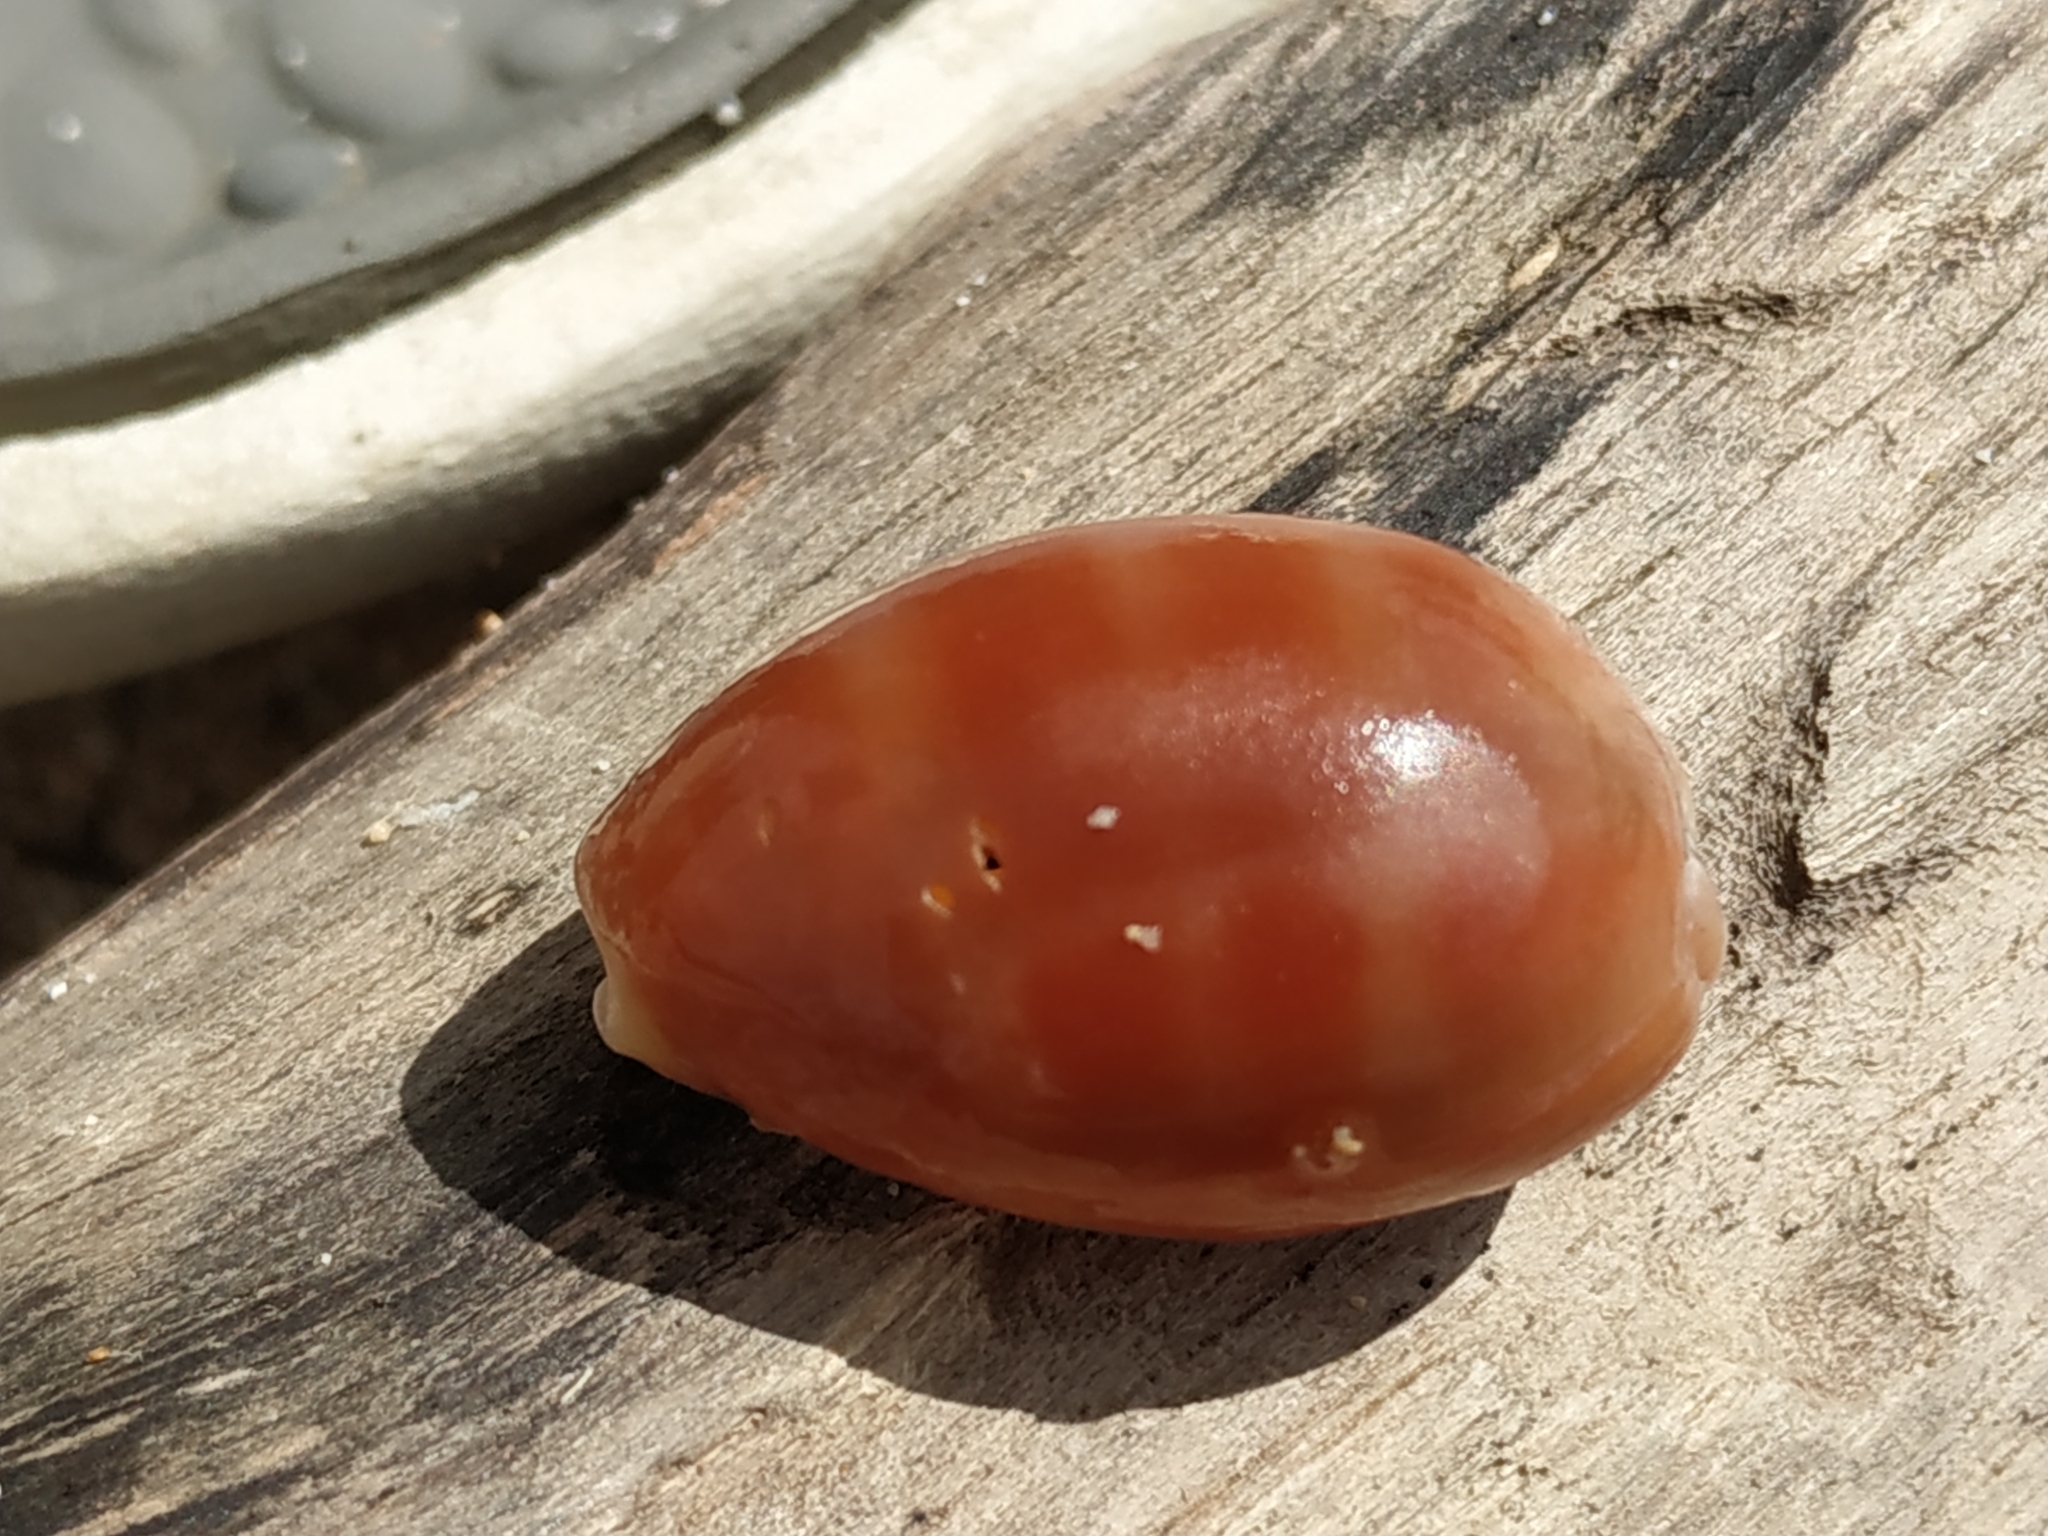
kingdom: Animalia
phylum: Mollusca
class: Gastropoda
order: Littorinimorpha
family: Cypraeidae
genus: Lyncina
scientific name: Lyncina carneola
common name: Purple-mouthed cowry
